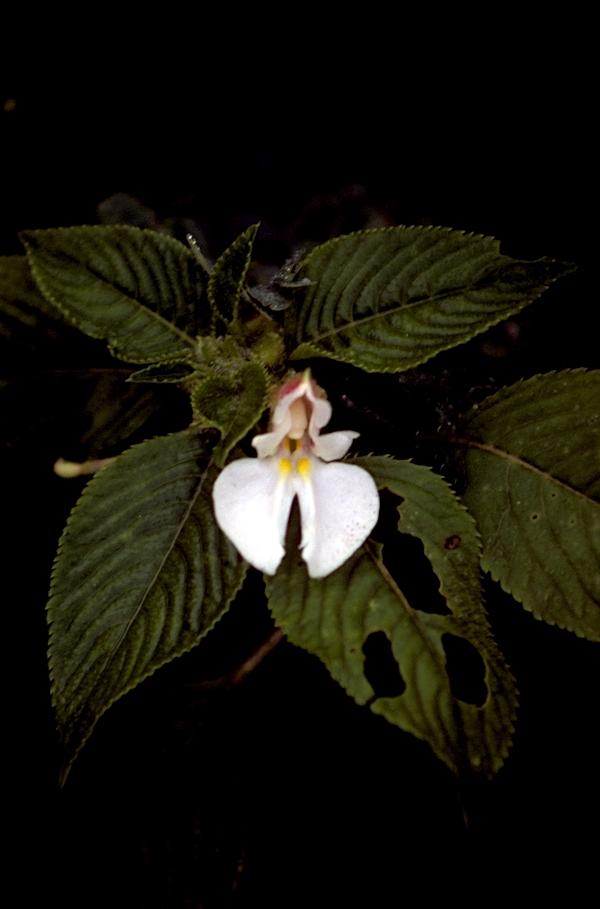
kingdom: Plantae
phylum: Tracheophyta
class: Magnoliopsida
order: Ericales
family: Balsaminaceae
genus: Impatiens
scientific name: Impatiens burtonii
